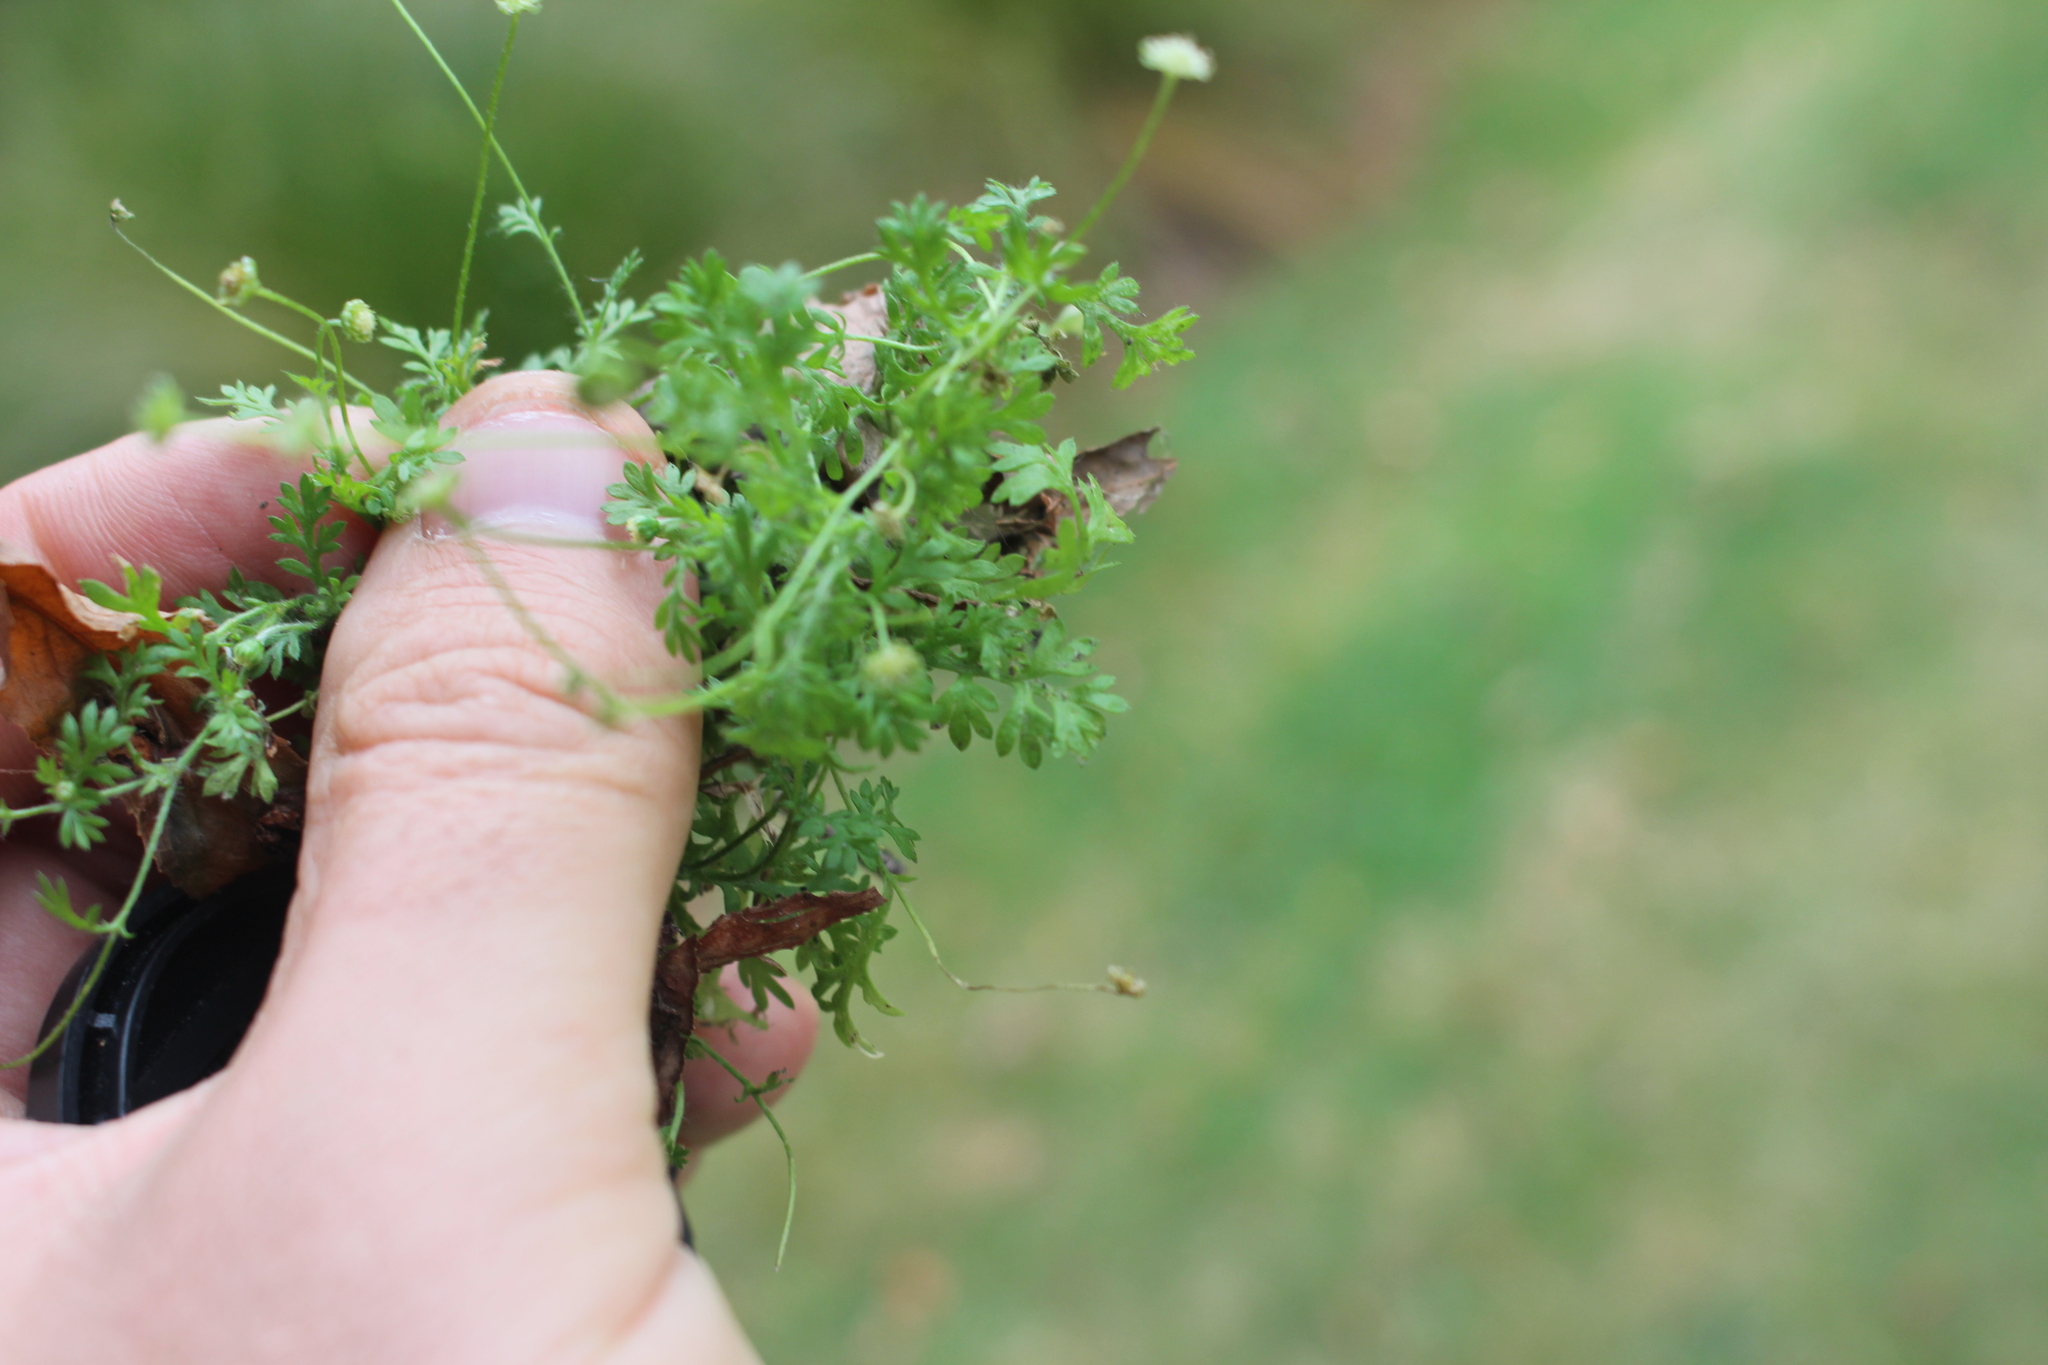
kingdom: Plantae
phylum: Tracheophyta
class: Magnoliopsida
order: Asterales
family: Asteraceae
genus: Cotula
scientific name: Cotula australis
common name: Australian waterbuttons
